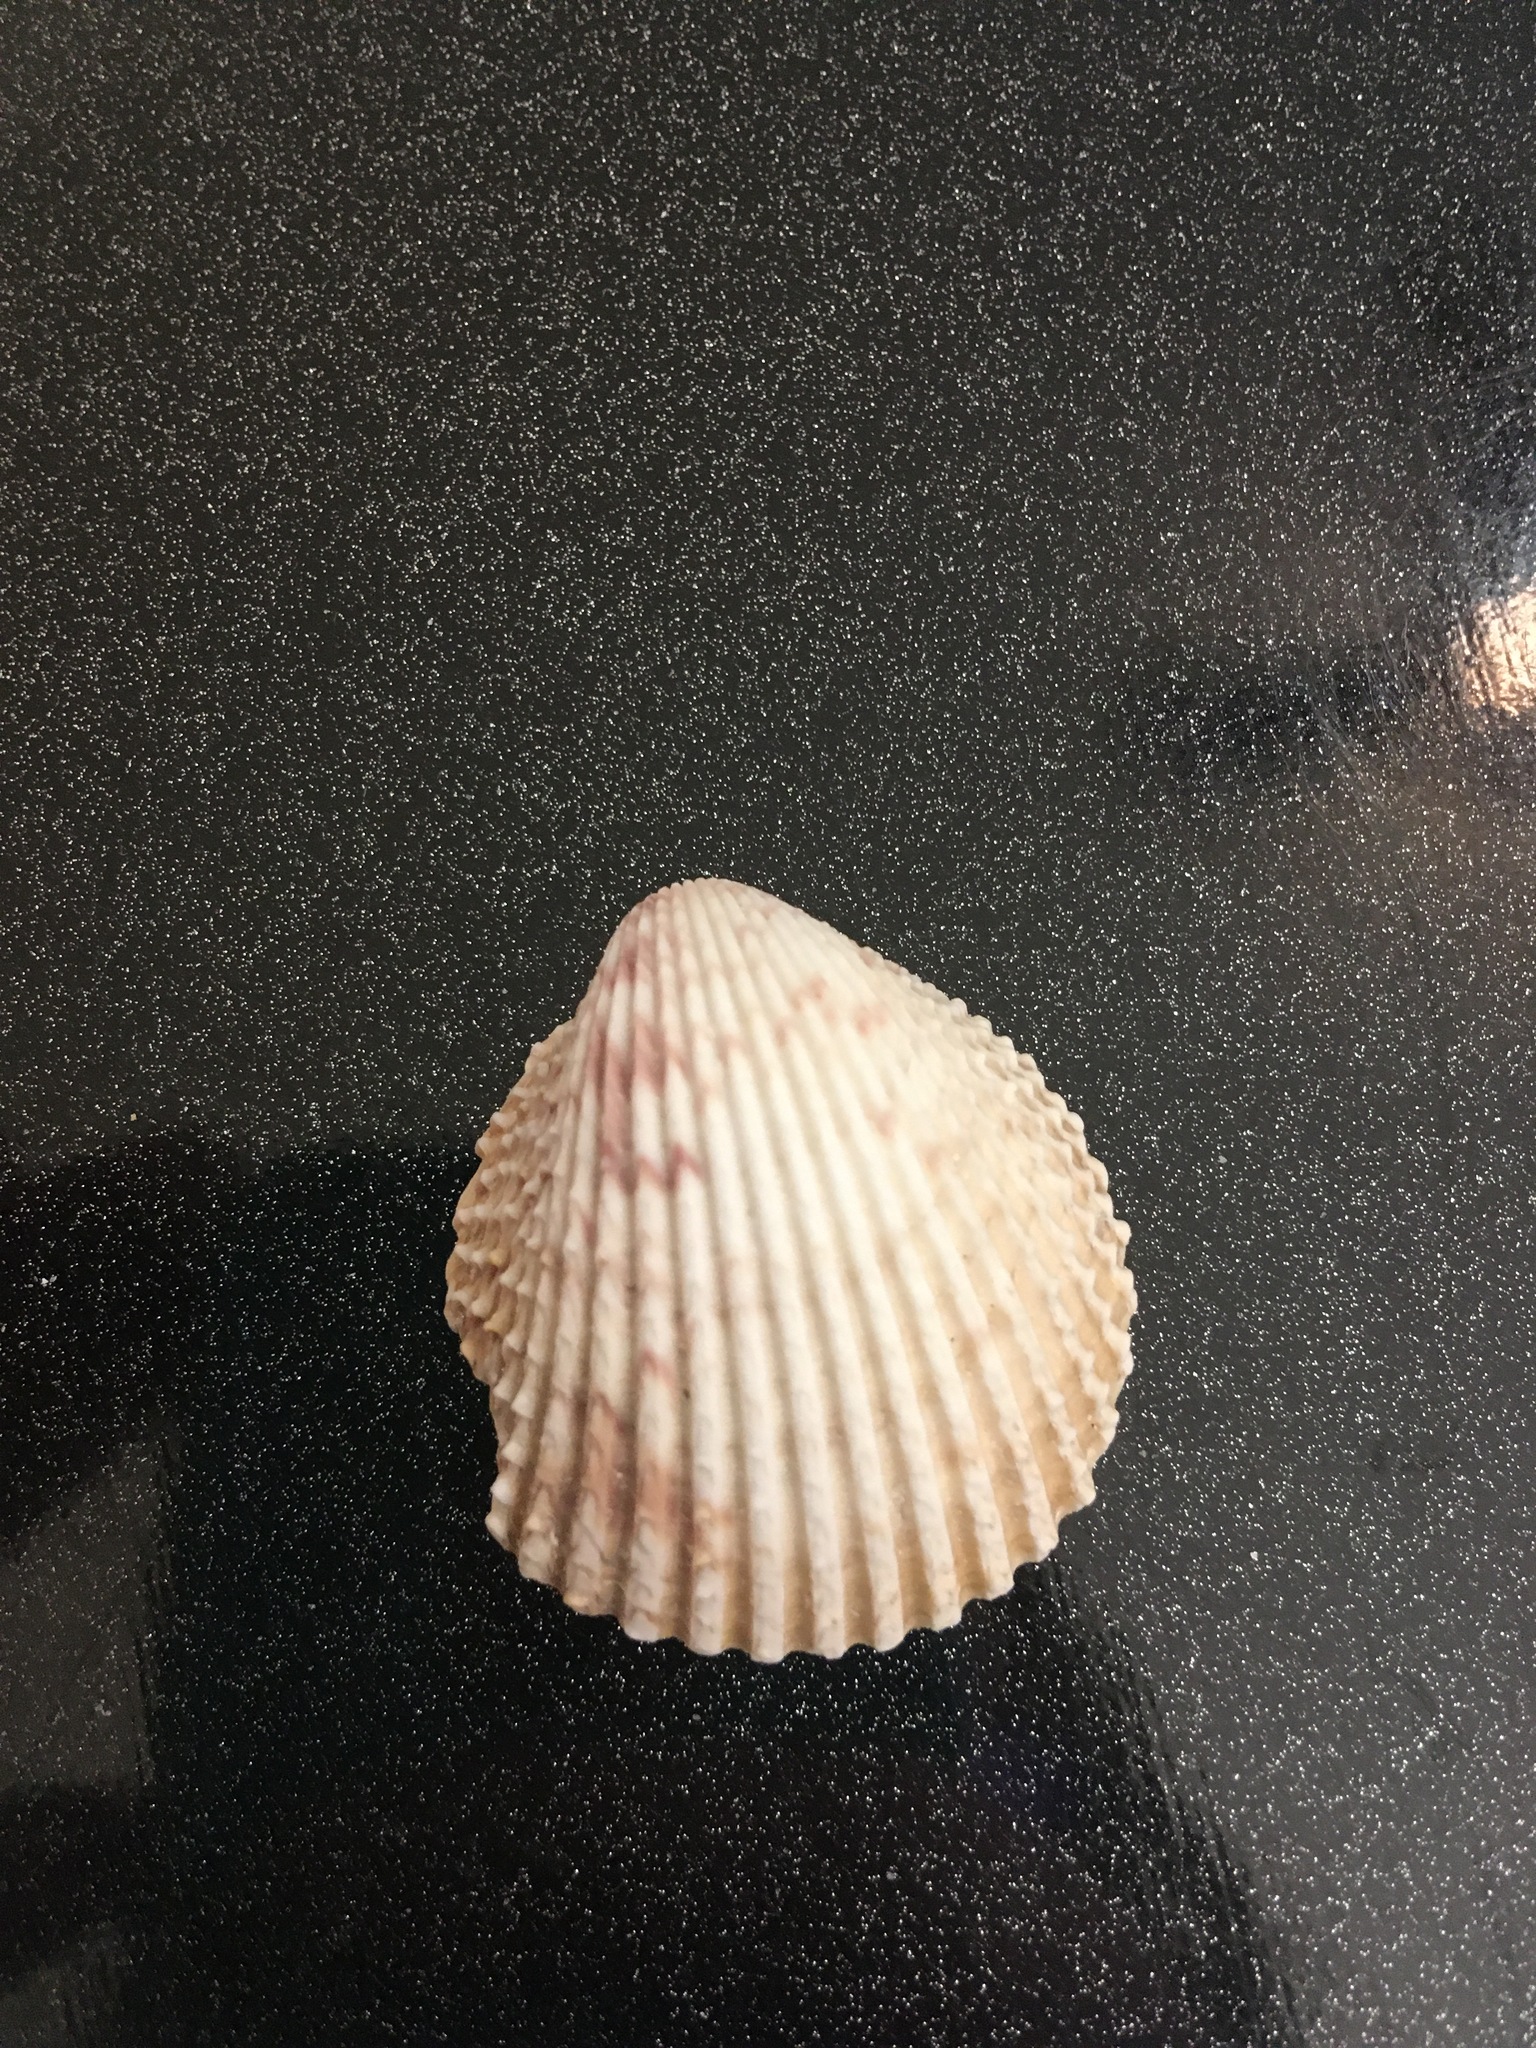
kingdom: Animalia
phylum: Mollusca
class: Bivalvia
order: Cardiida
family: Cardiidae
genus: Trachycardium
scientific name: Trachycardium egmontianum
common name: Florida pricklycockle
